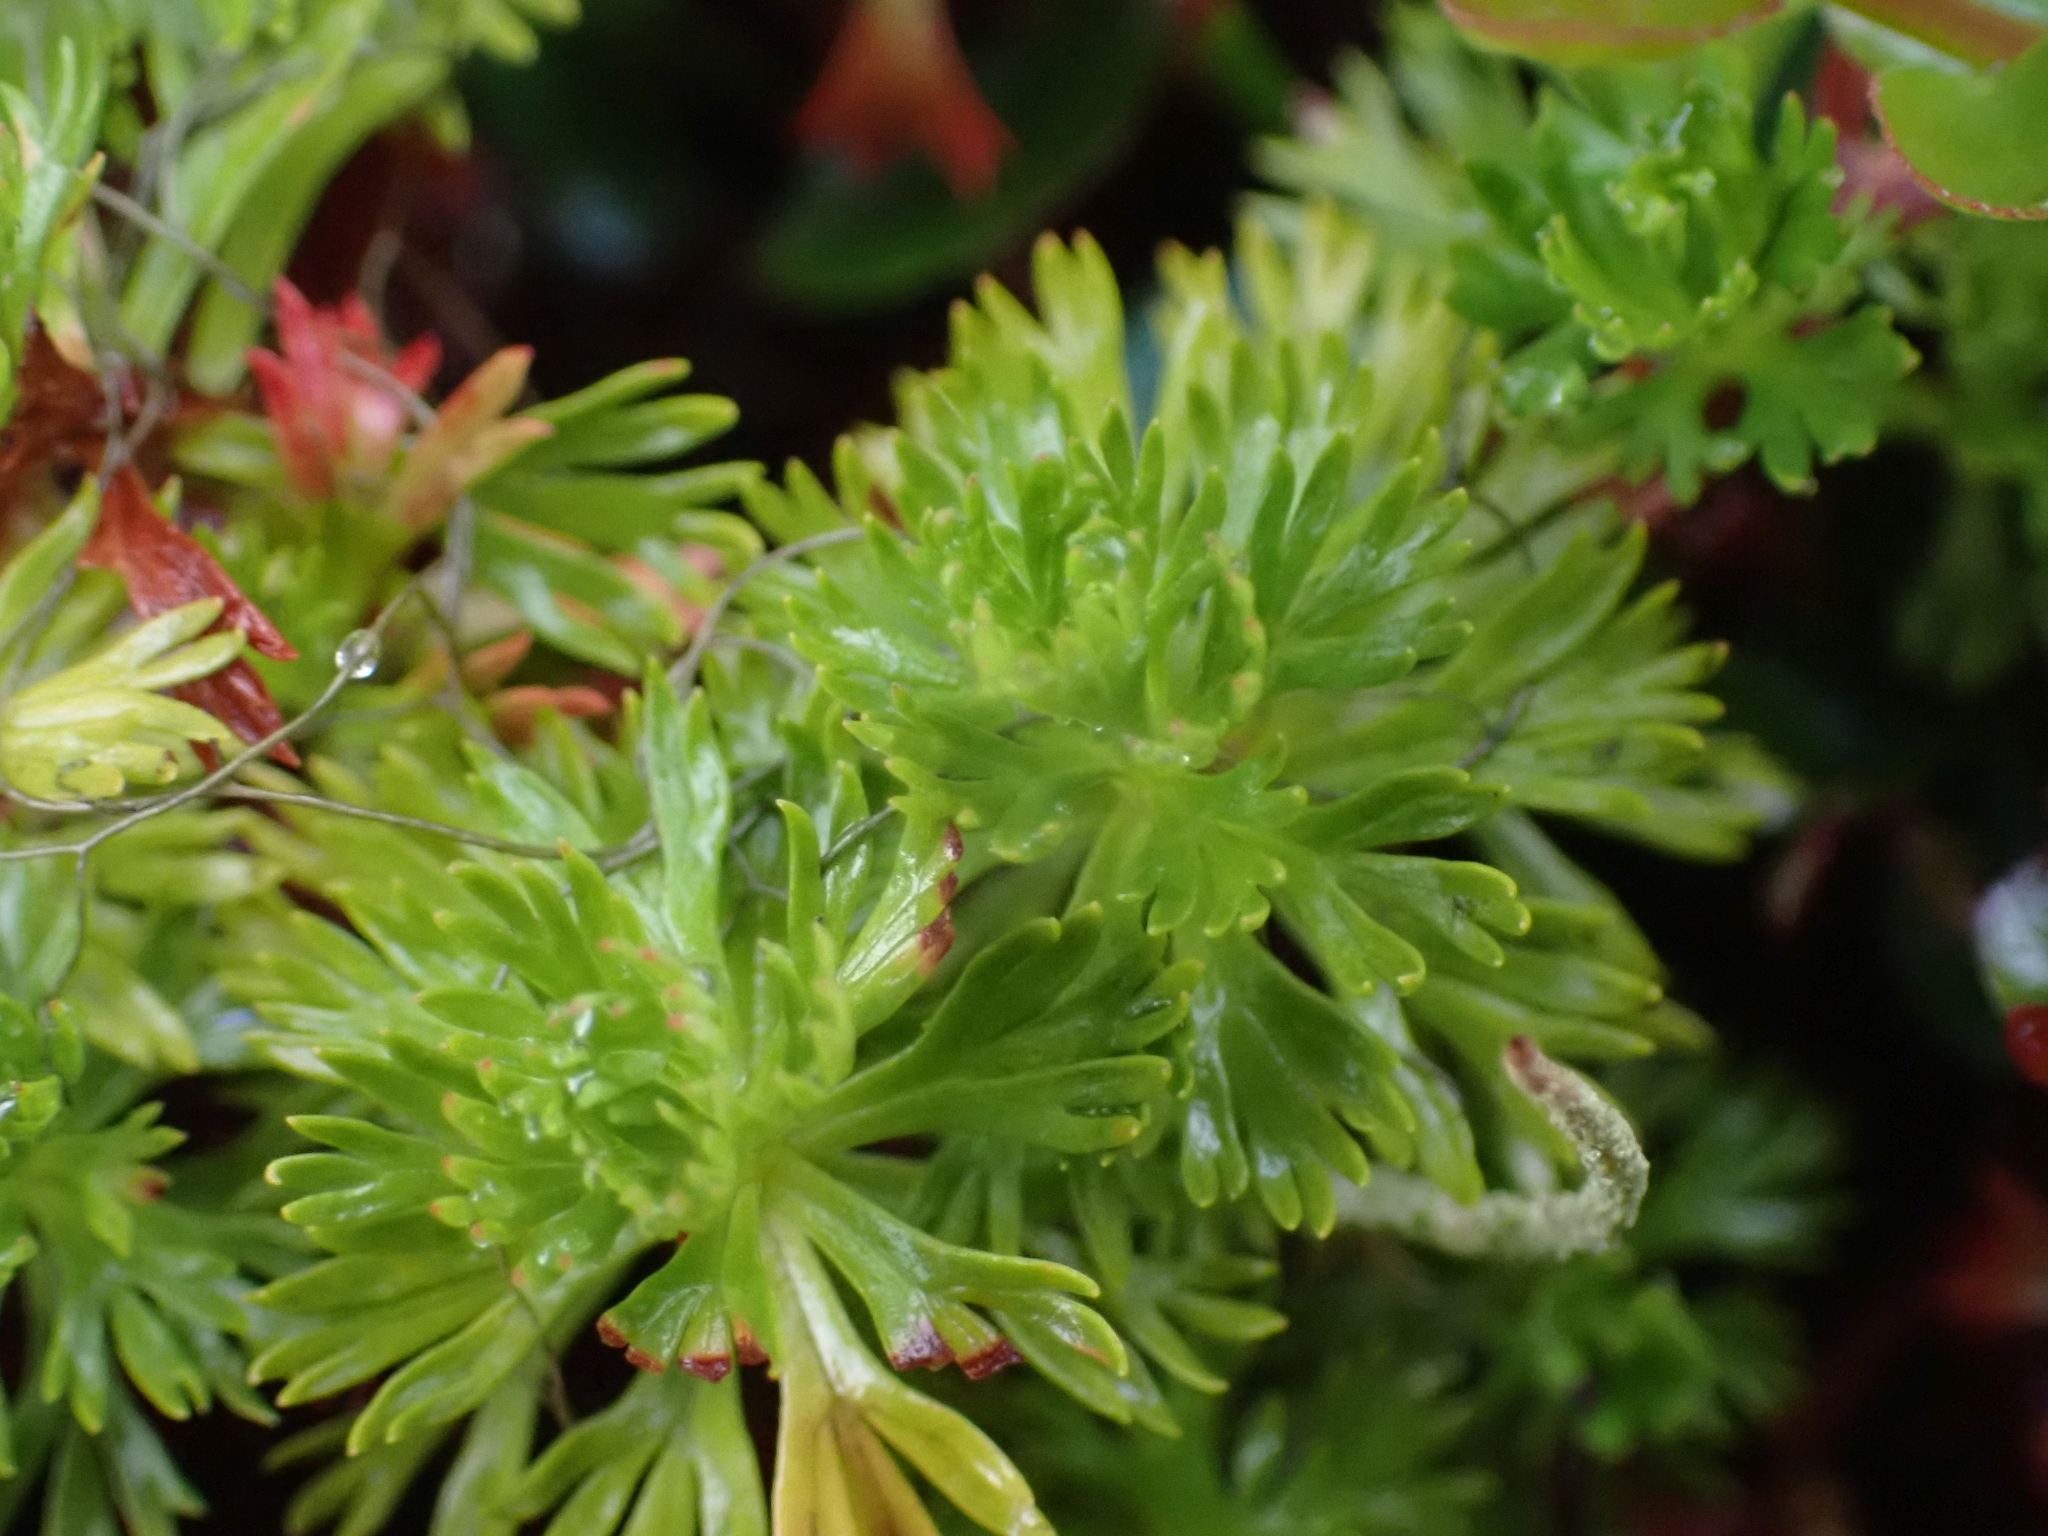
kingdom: Plantae
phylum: Tracheophyta
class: Magnoliopsida
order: Rosales
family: Rosaceae
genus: Luetkea
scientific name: Luetkea pectinata
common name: Partridgefoot
